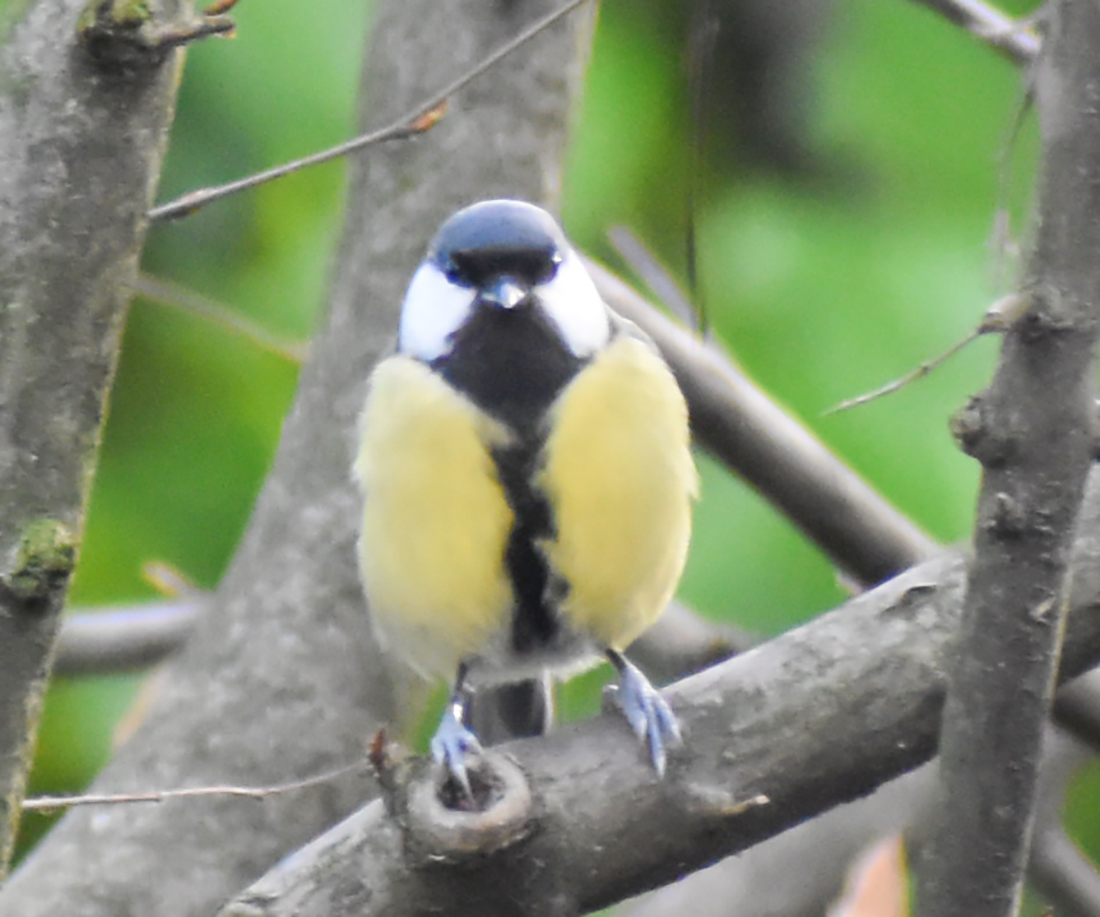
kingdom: Animalia
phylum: Chordata
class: Aves
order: Passeriformes
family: Paridae
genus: Parus
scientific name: Parus major
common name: Great tit
